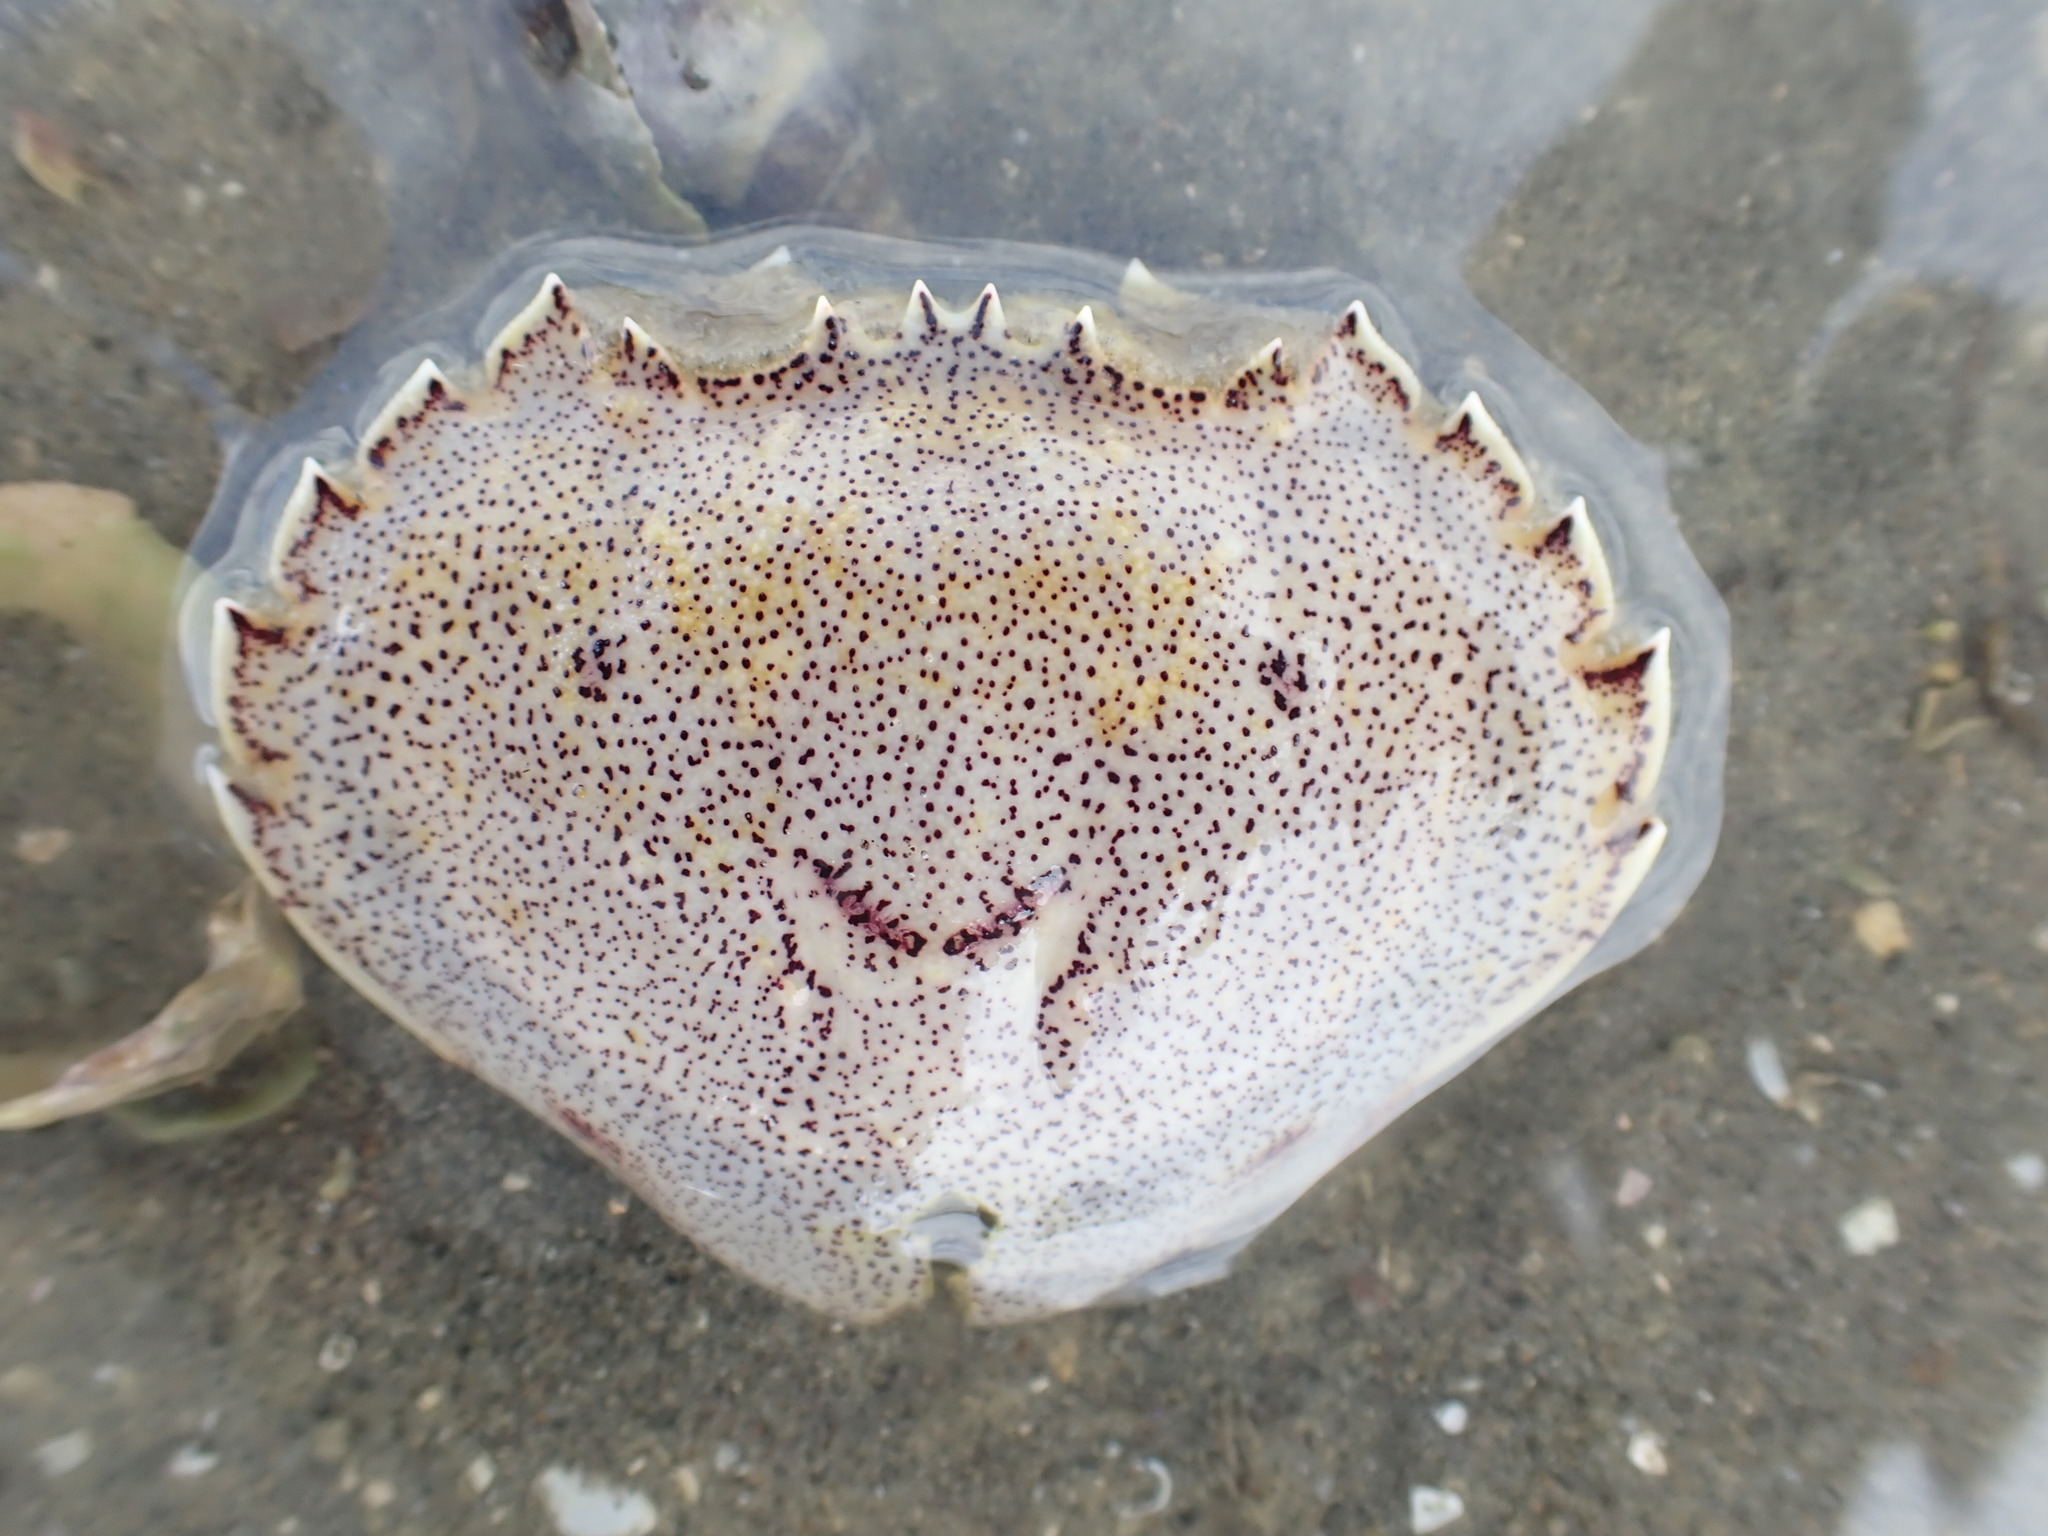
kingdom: Animalia
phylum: Arthropoda
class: Malacostraca
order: Decapoda
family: Ovalipidae
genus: Ovalipes
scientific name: Ovalipes catharus
